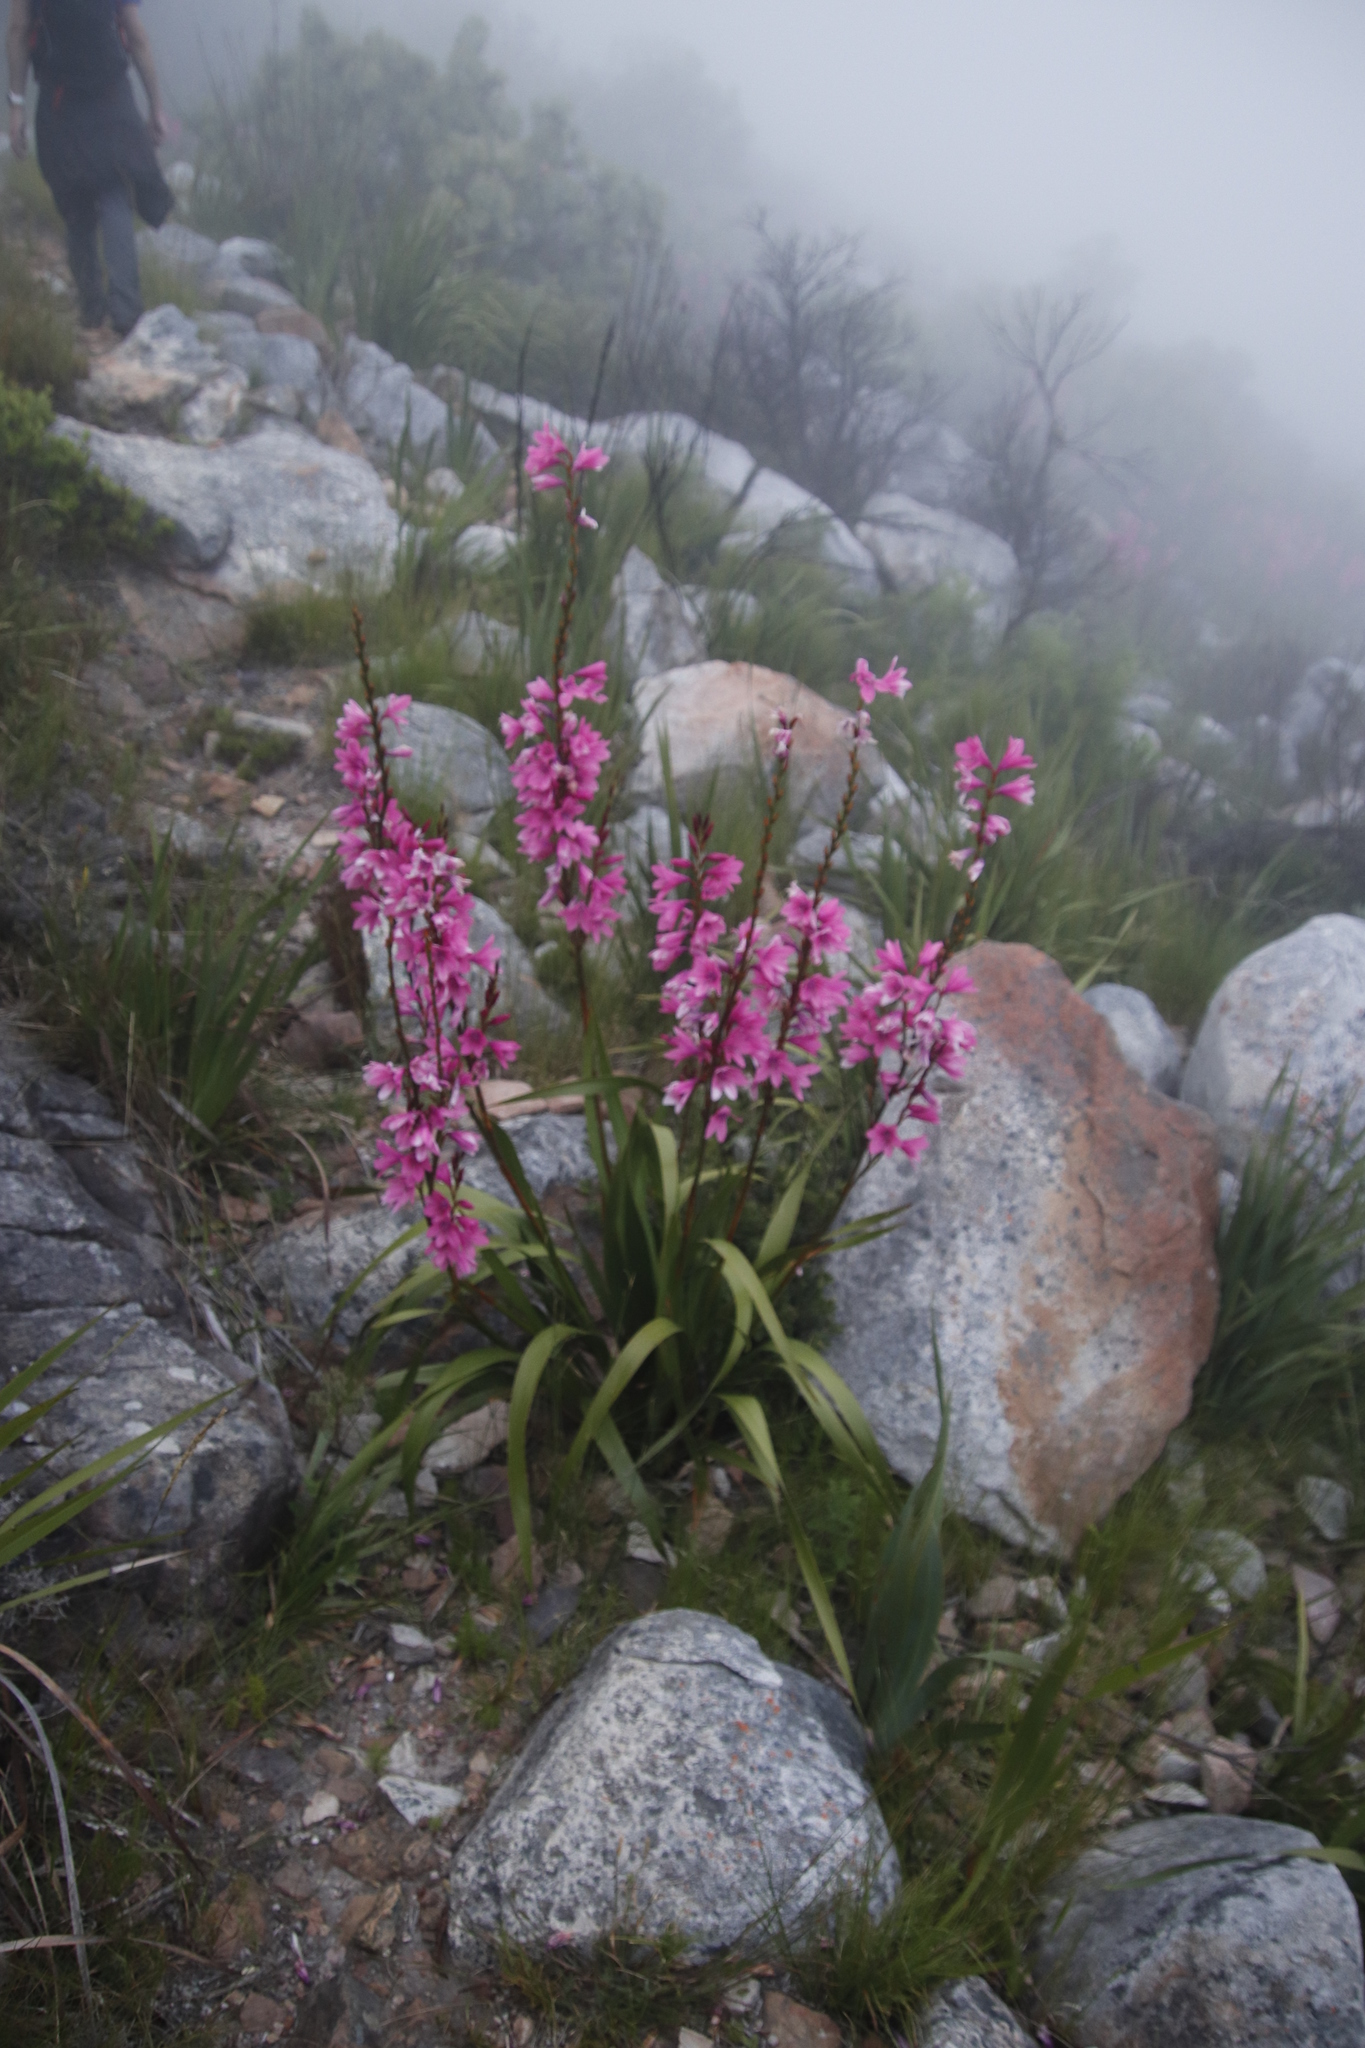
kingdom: Plantae
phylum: Tracheophyta
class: Liliopsida
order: Asparagales
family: Iridaceae
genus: Watsonia
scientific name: Watsonia borbonica
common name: Bugle-lily
